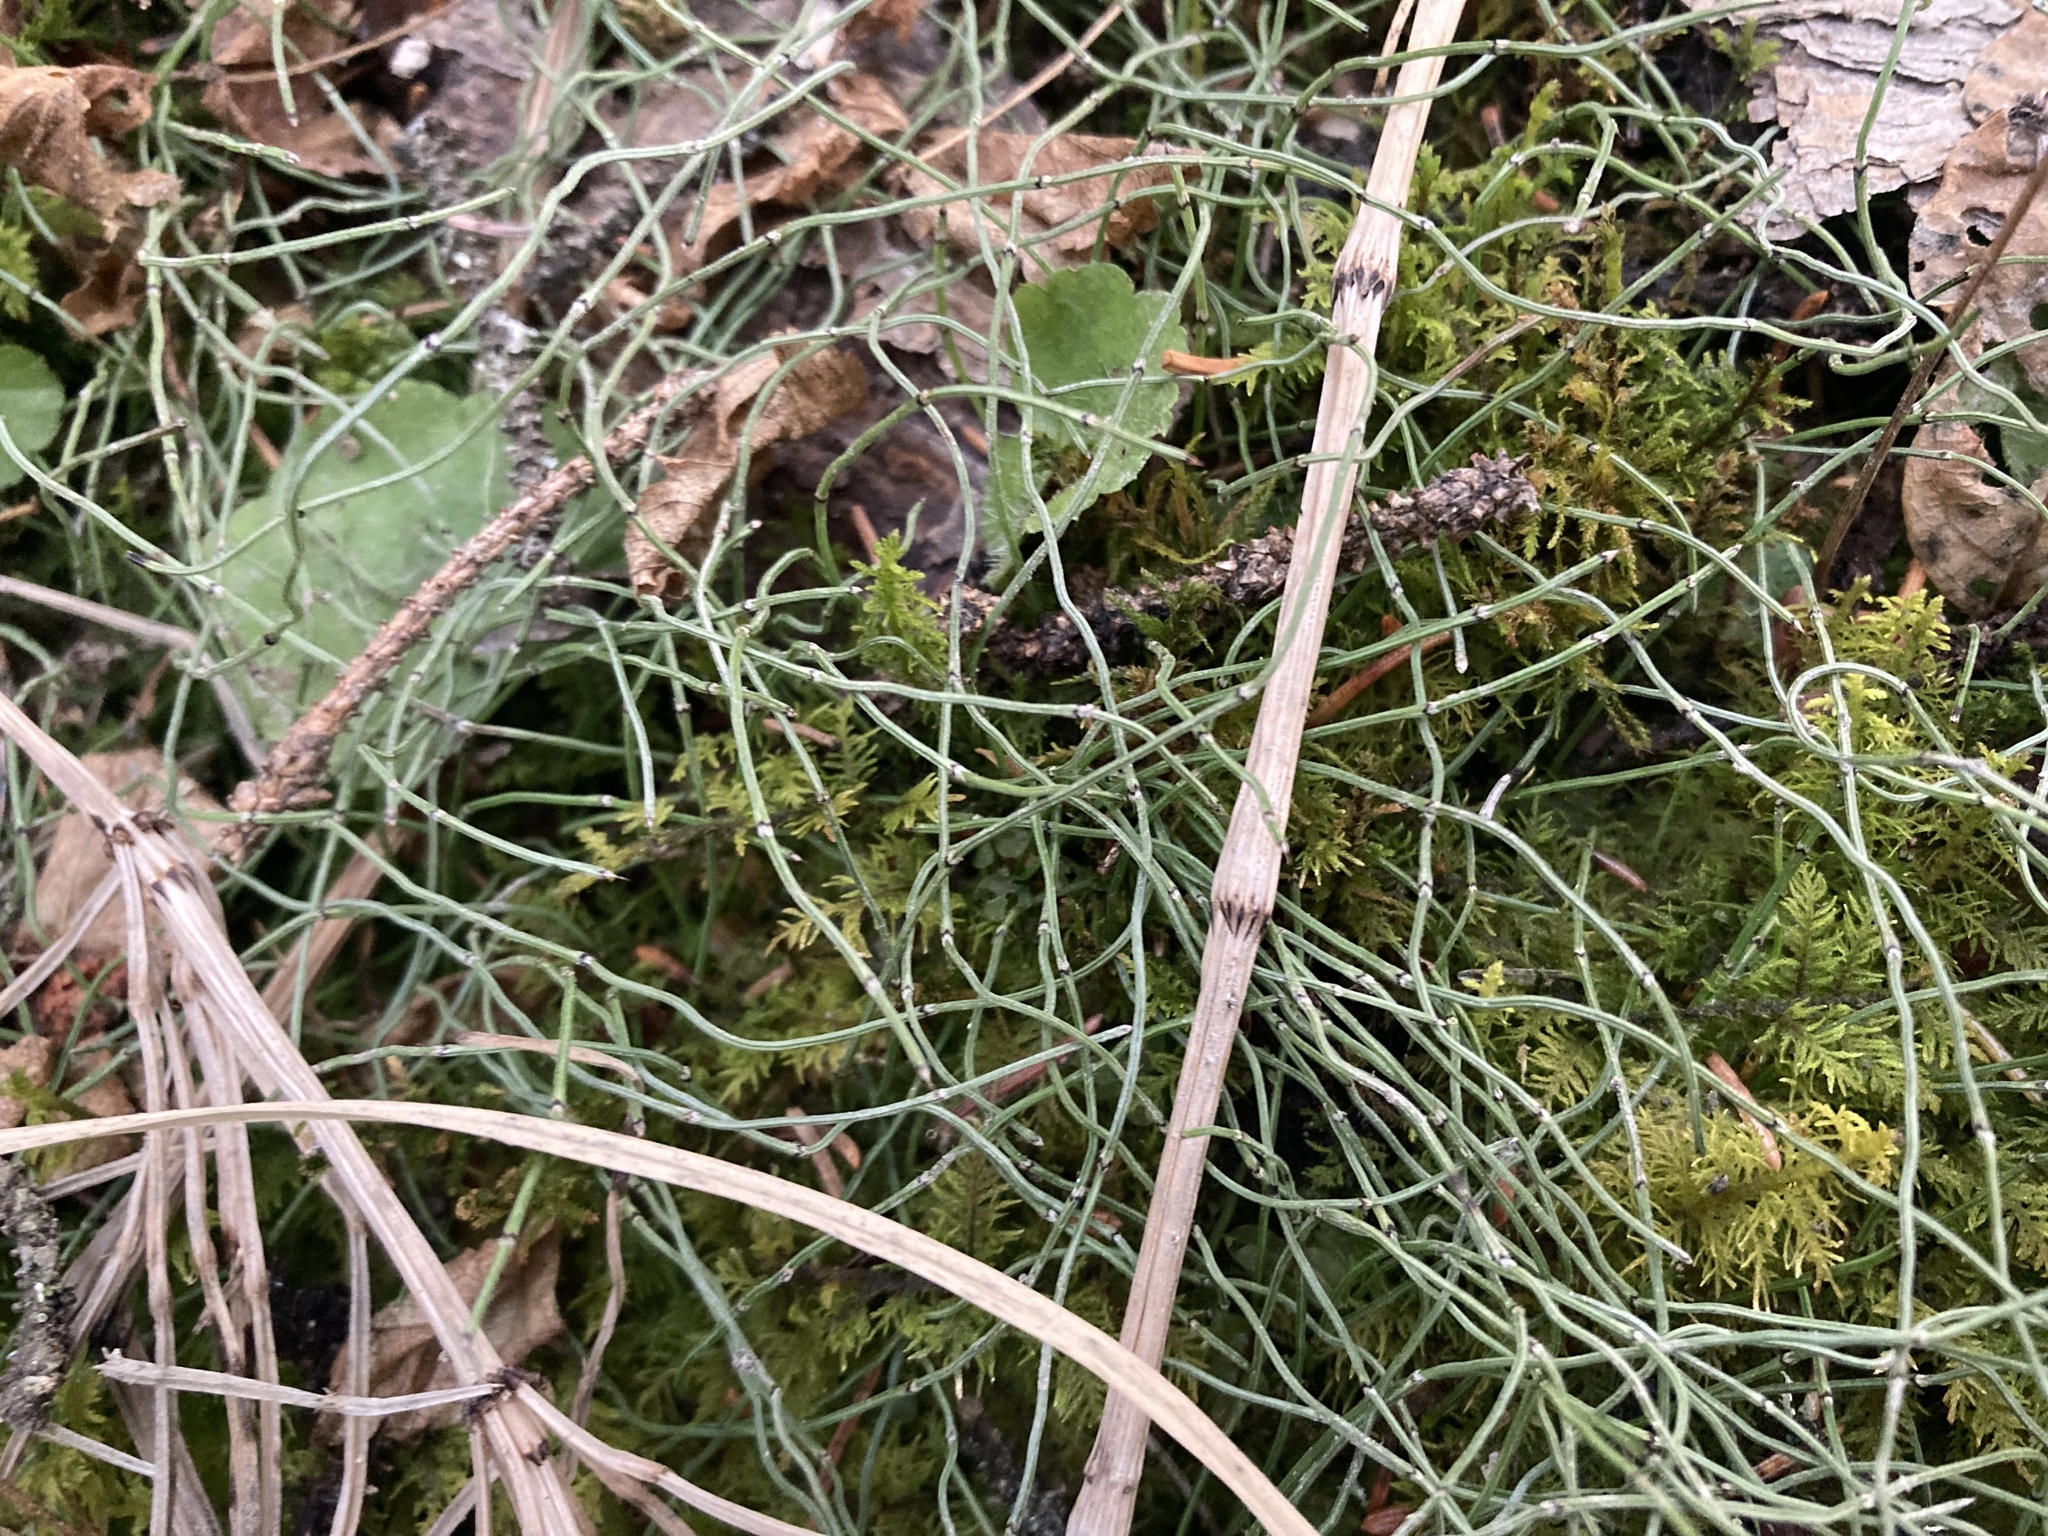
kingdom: Plantae
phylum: Tracheophyta
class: Polypodiopsida
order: Equisetales
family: Equisetaceae
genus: Equisetum
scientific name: Equisetum scirpoides
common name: Delicate horsetail
